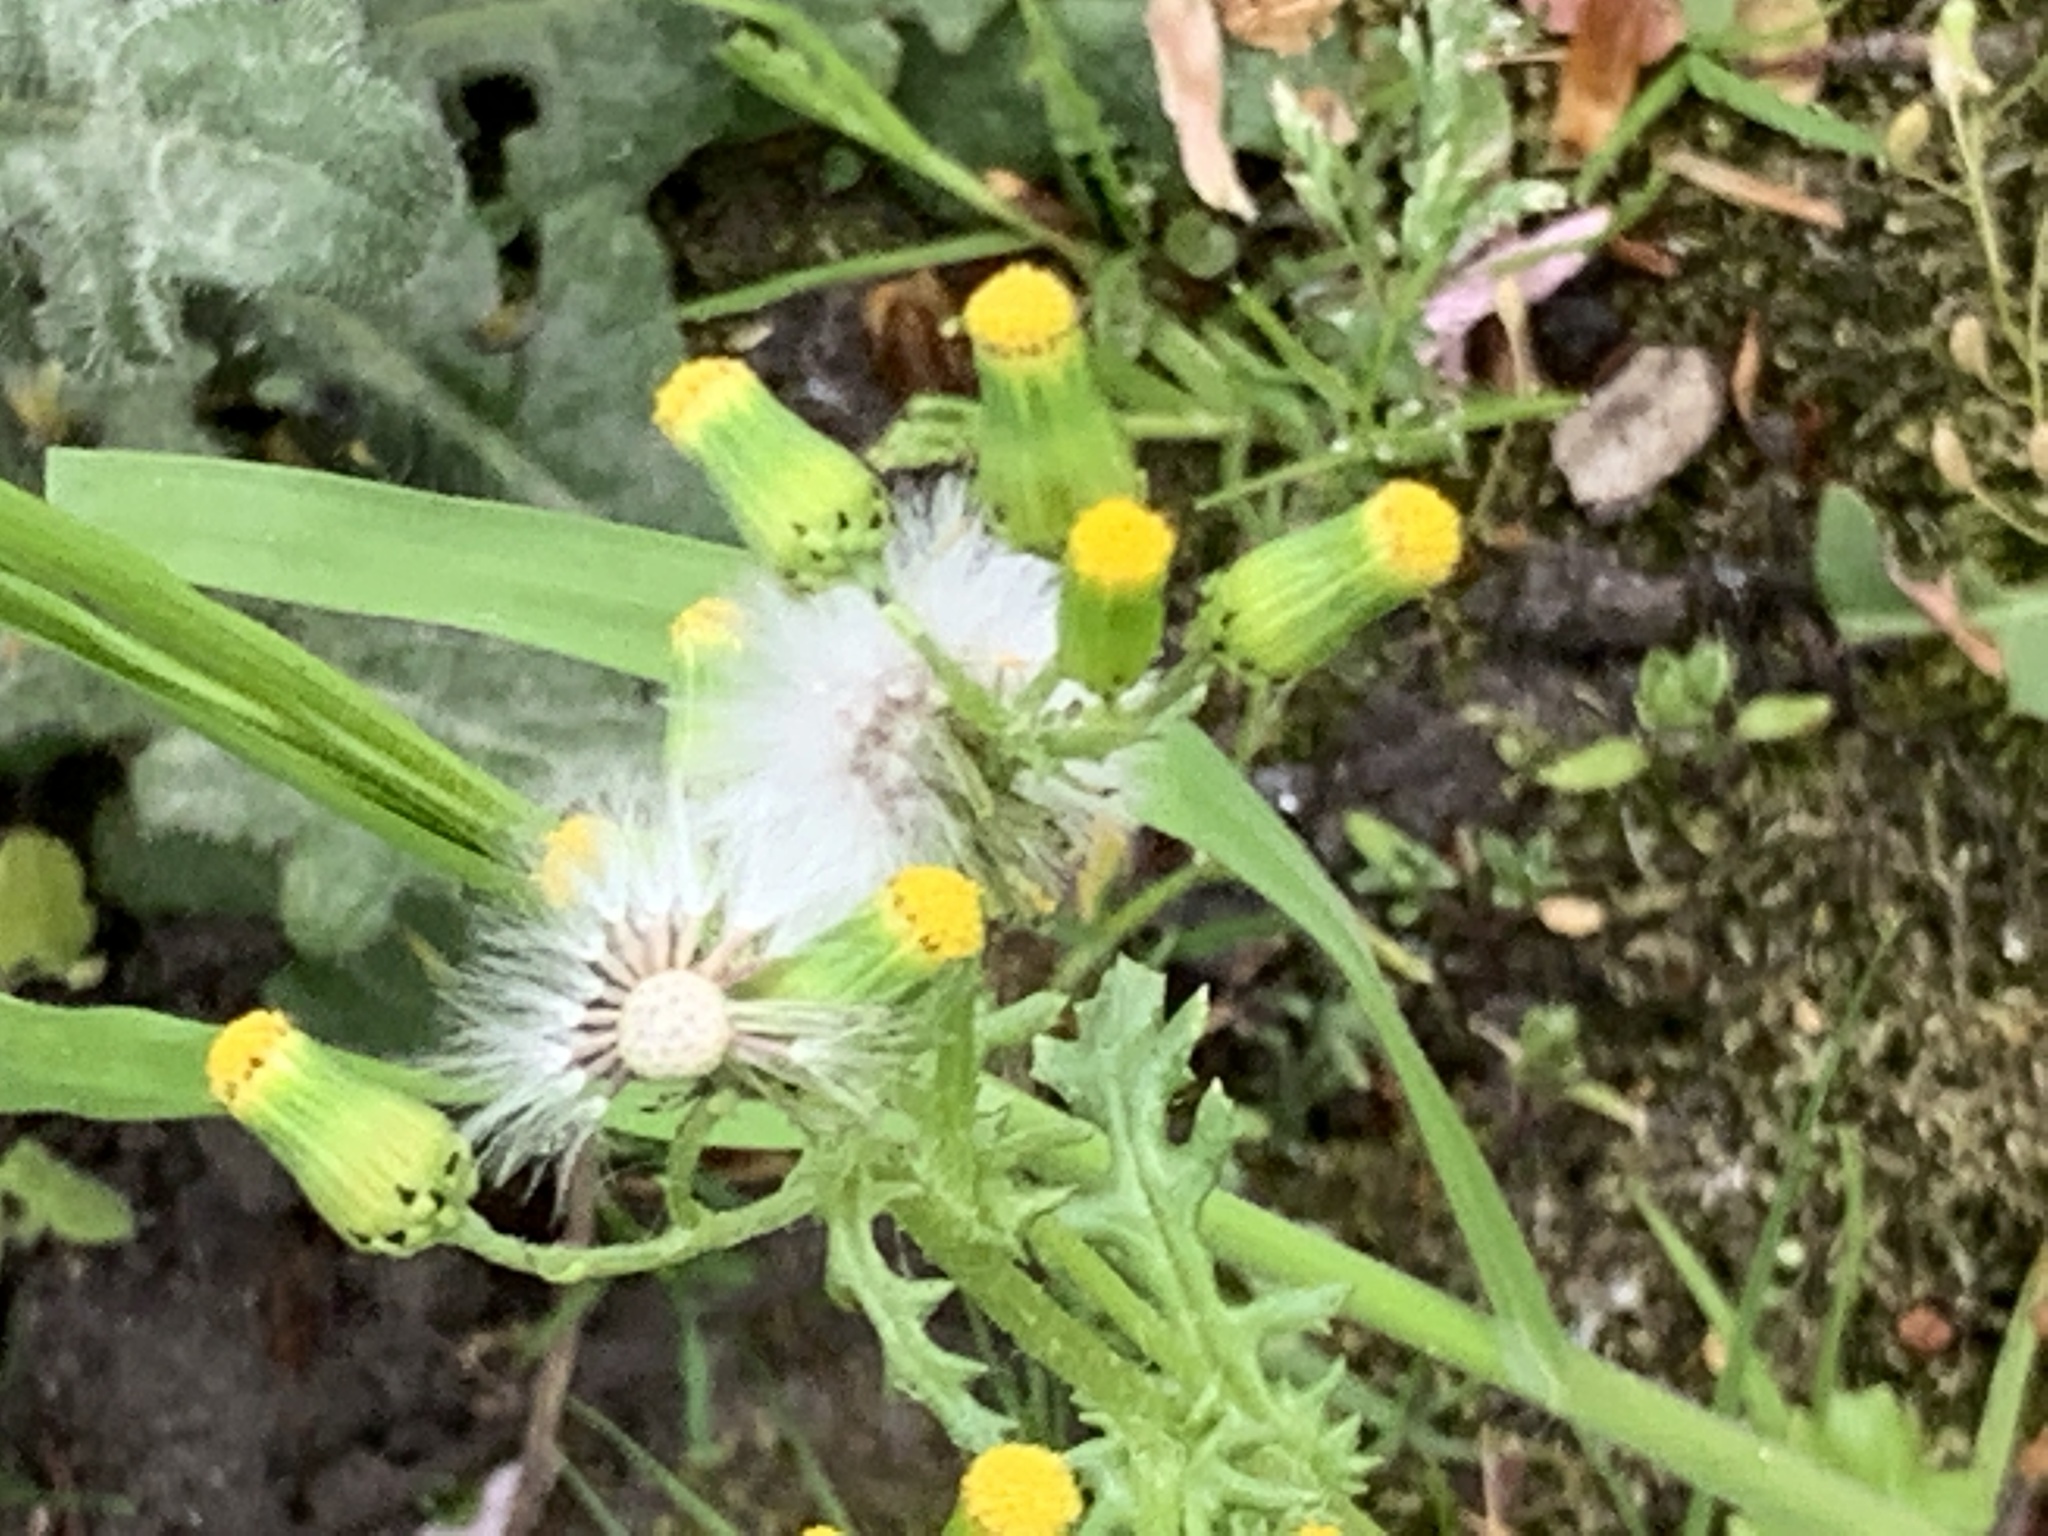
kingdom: Plantae
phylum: Tracheophyta
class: Magnoliopsida
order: Asterales
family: Asteraceae
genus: Senecio
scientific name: Senecio vulgaris
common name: Old-man-in-the-spring
